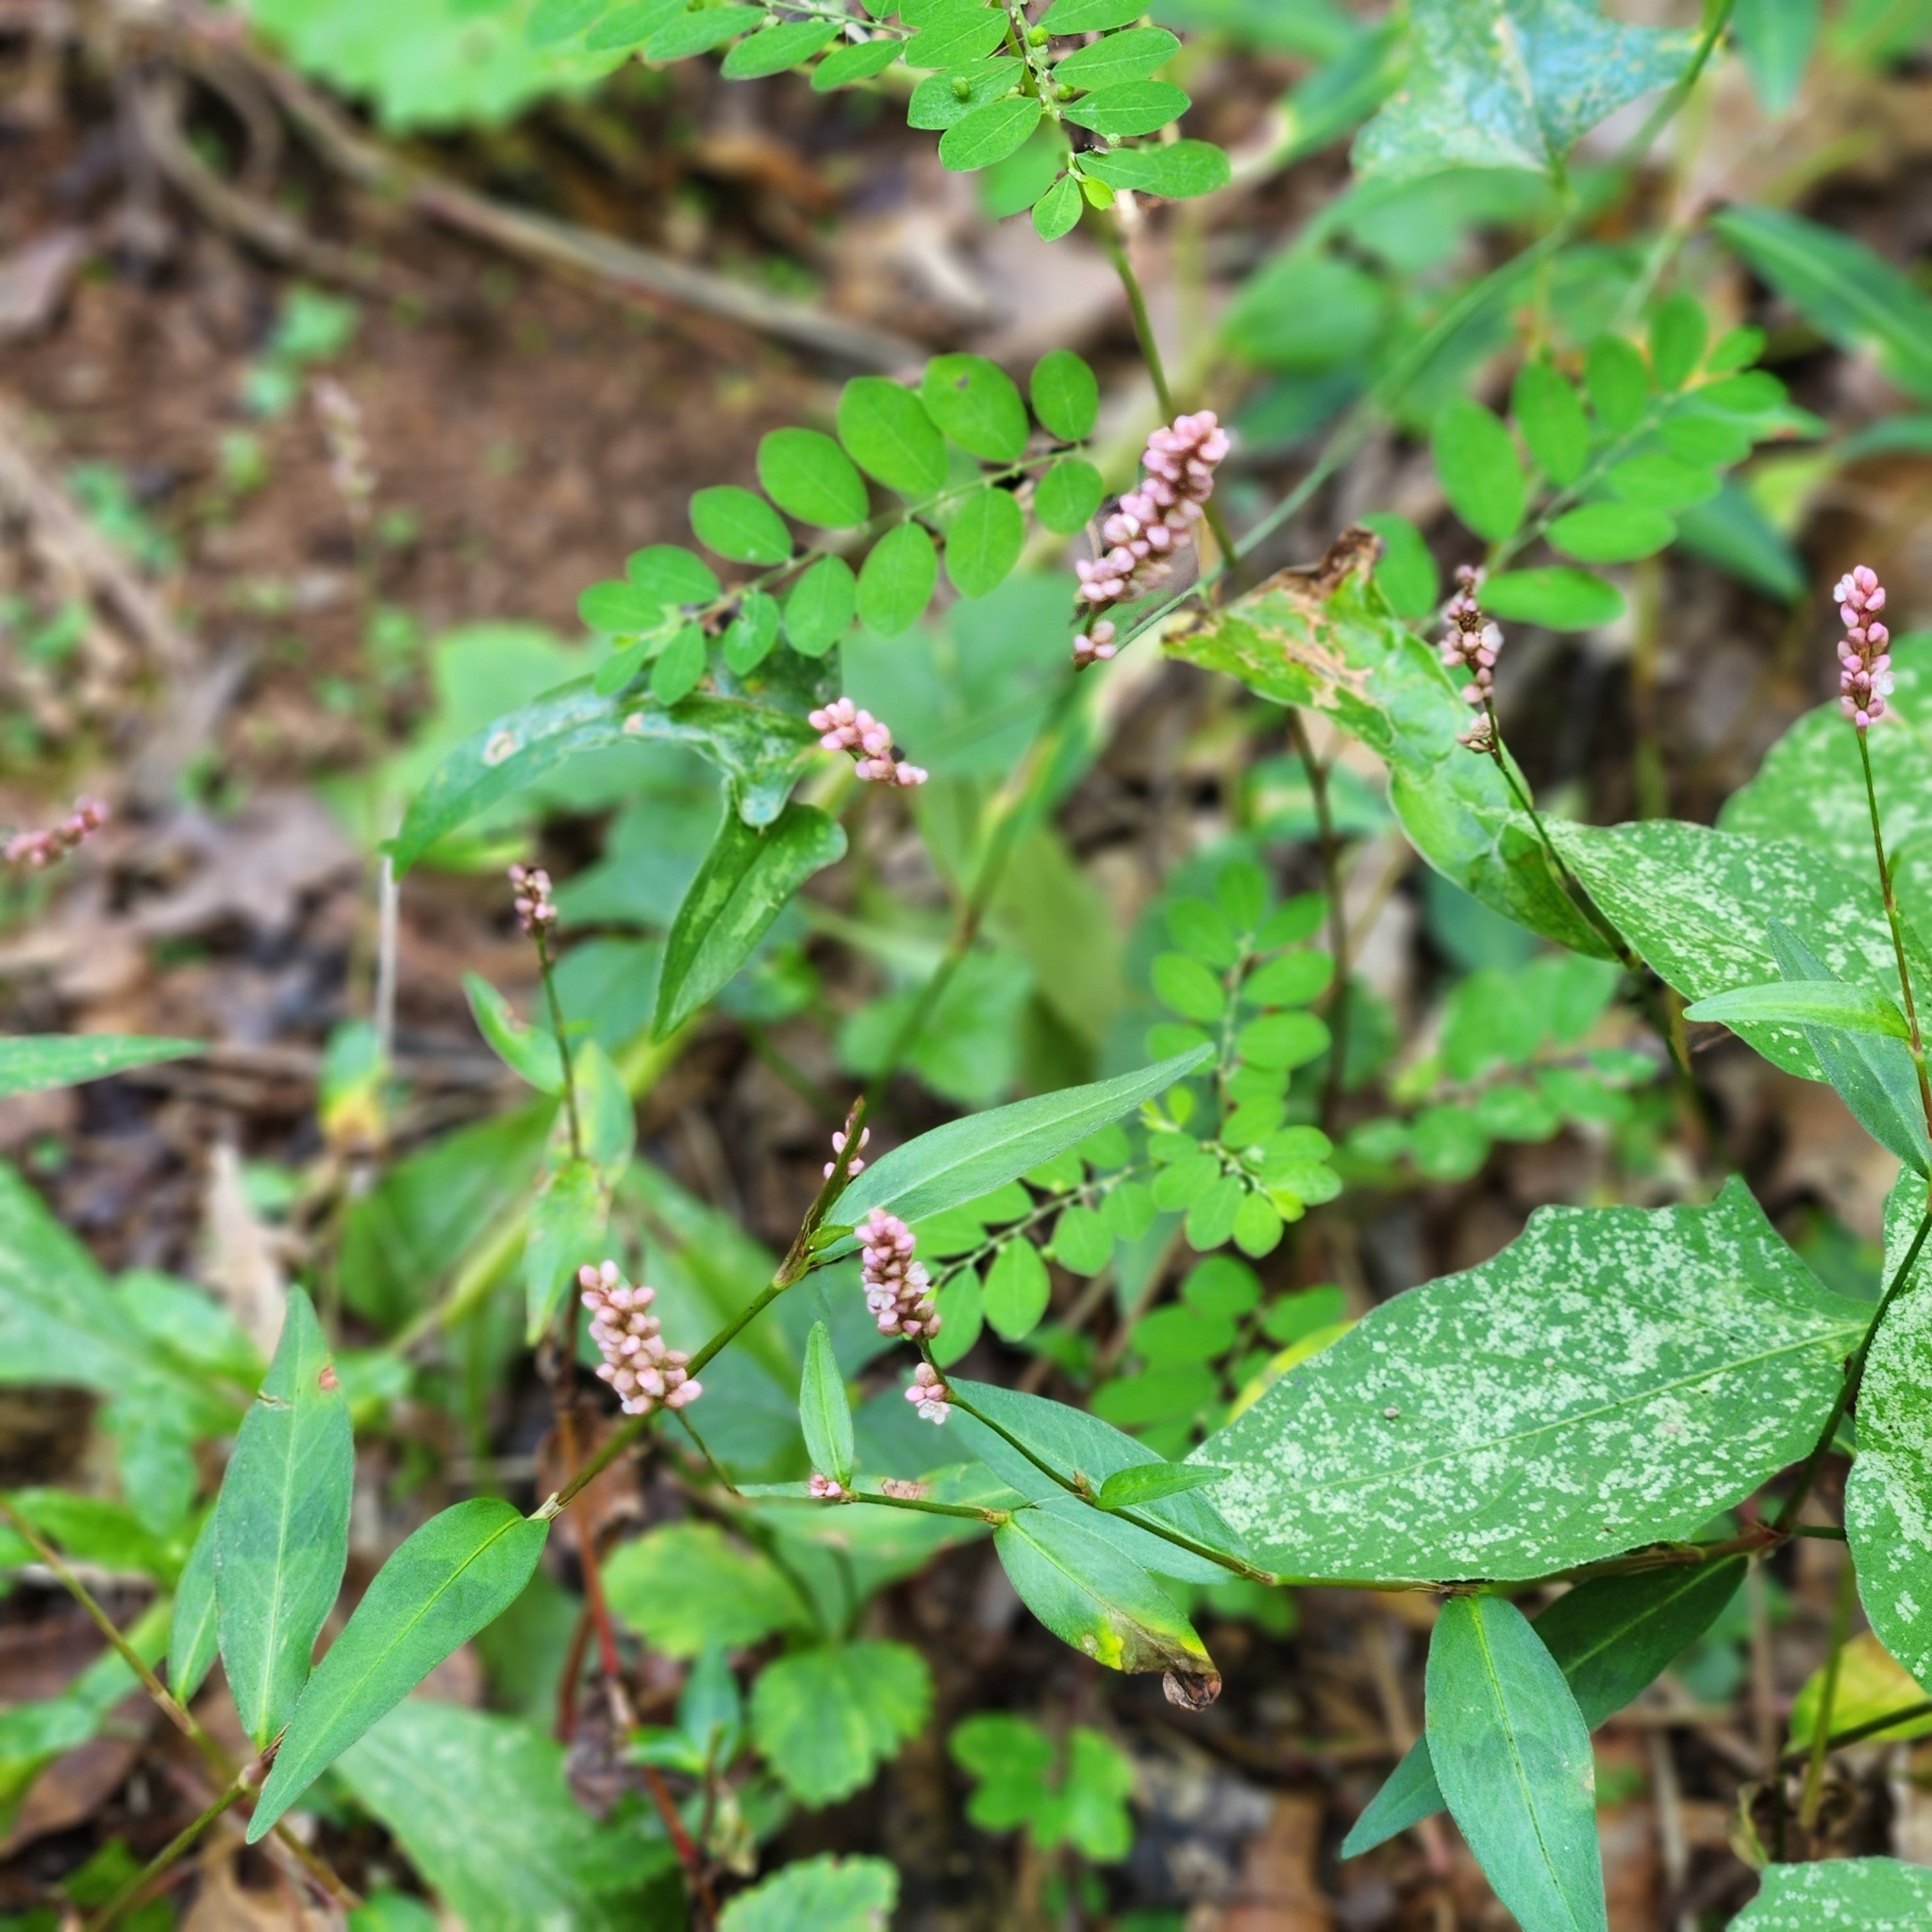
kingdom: Plantae
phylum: Tracheophyta
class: Magnoliopsida
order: Caryophyllales
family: Polygonaceae
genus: Persicaria
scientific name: Persicaria longiseta
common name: Bristly lady's-thumb
